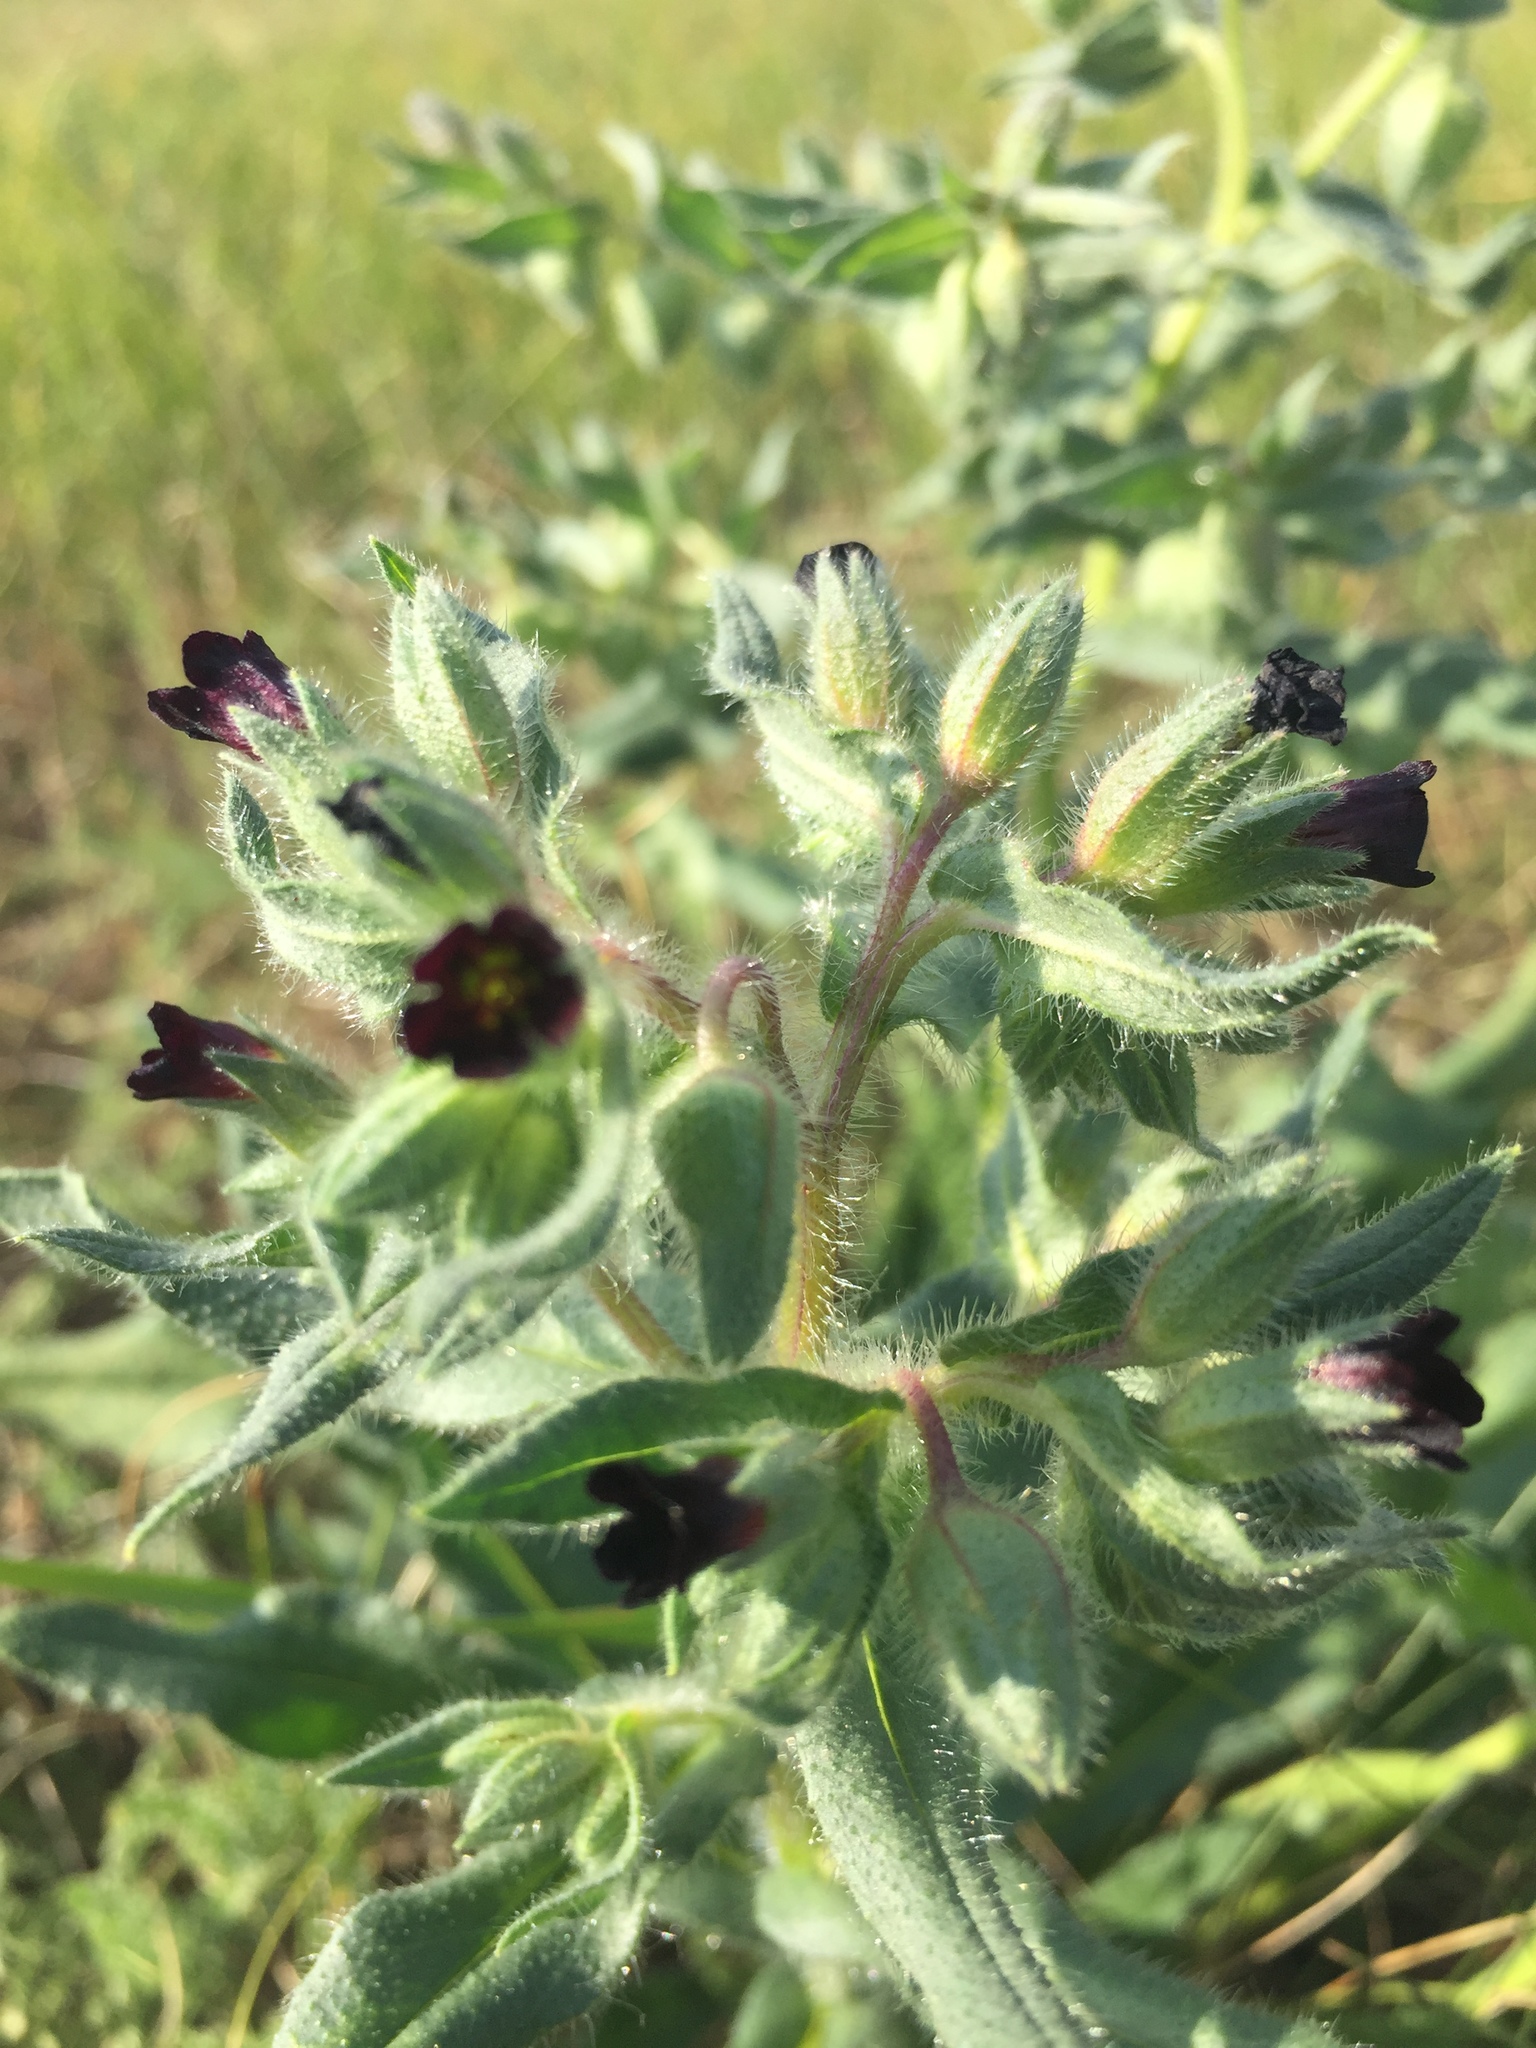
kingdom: Plantae
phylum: Tracheophyta
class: Magnoliopsida
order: Boraginales
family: Boraginaceae
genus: Nonea
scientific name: Nonea pulla
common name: Brown nonea
